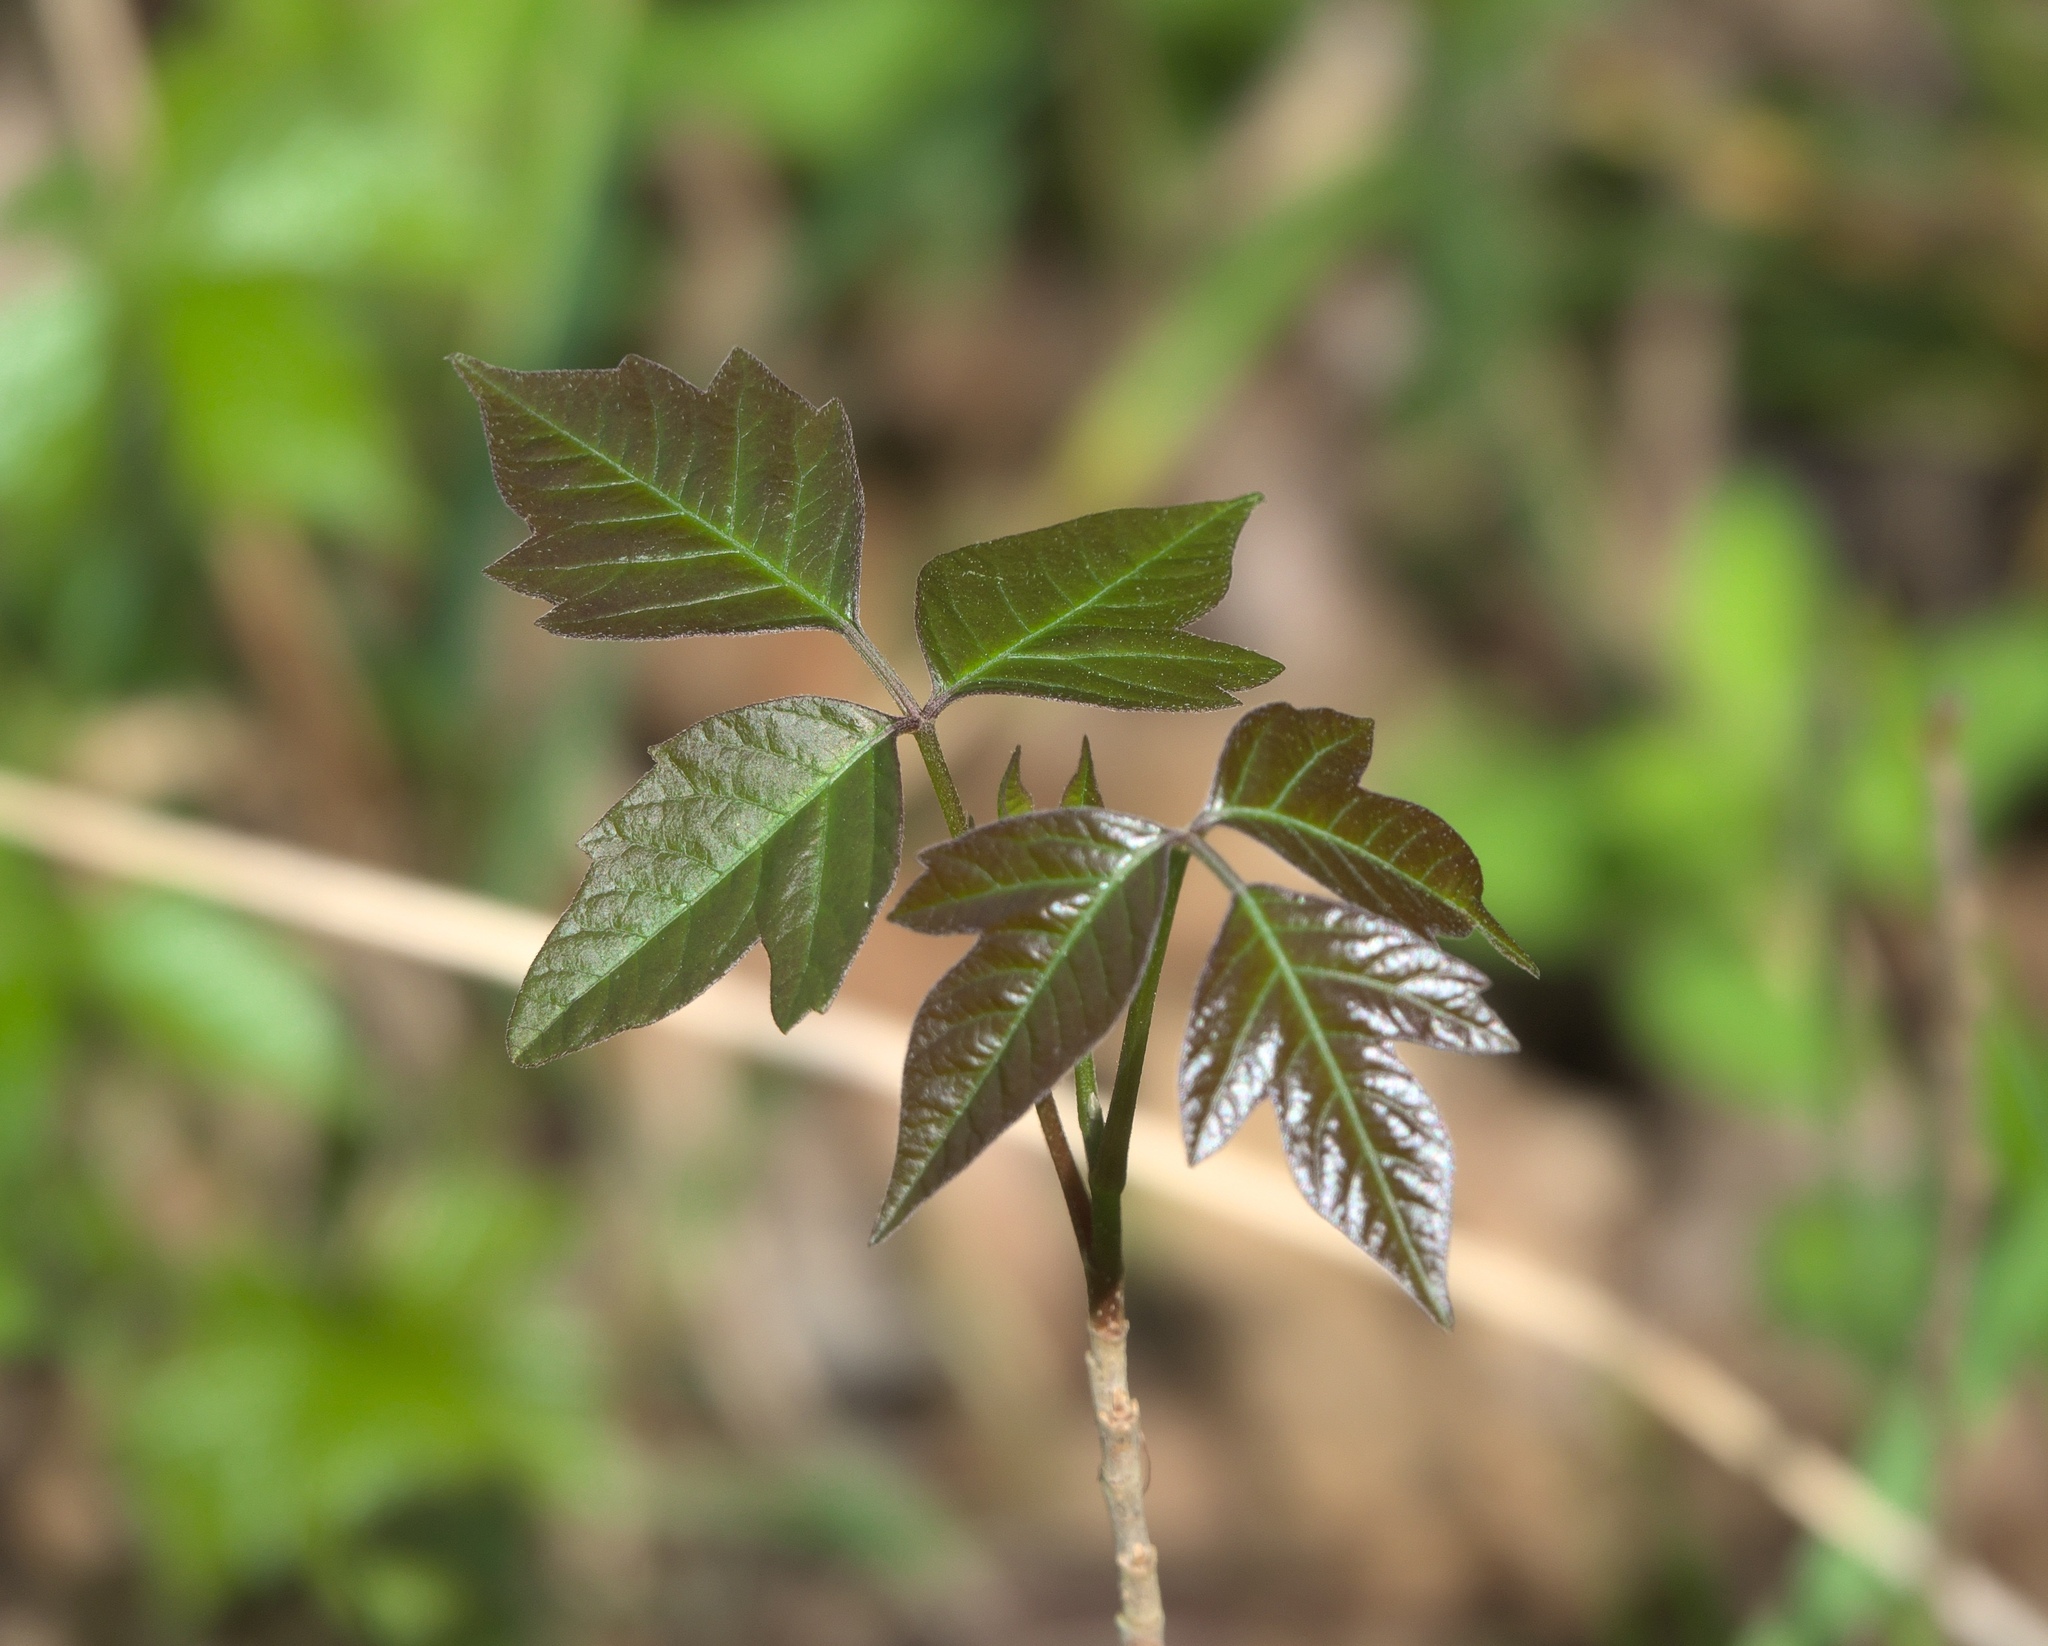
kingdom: Plantae
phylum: Tracheophyta
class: Magnoliopsida
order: Sapindales
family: Anacardiaceae
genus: Toxicodendron
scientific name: Toxicodendron radicans
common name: Poison ivy
